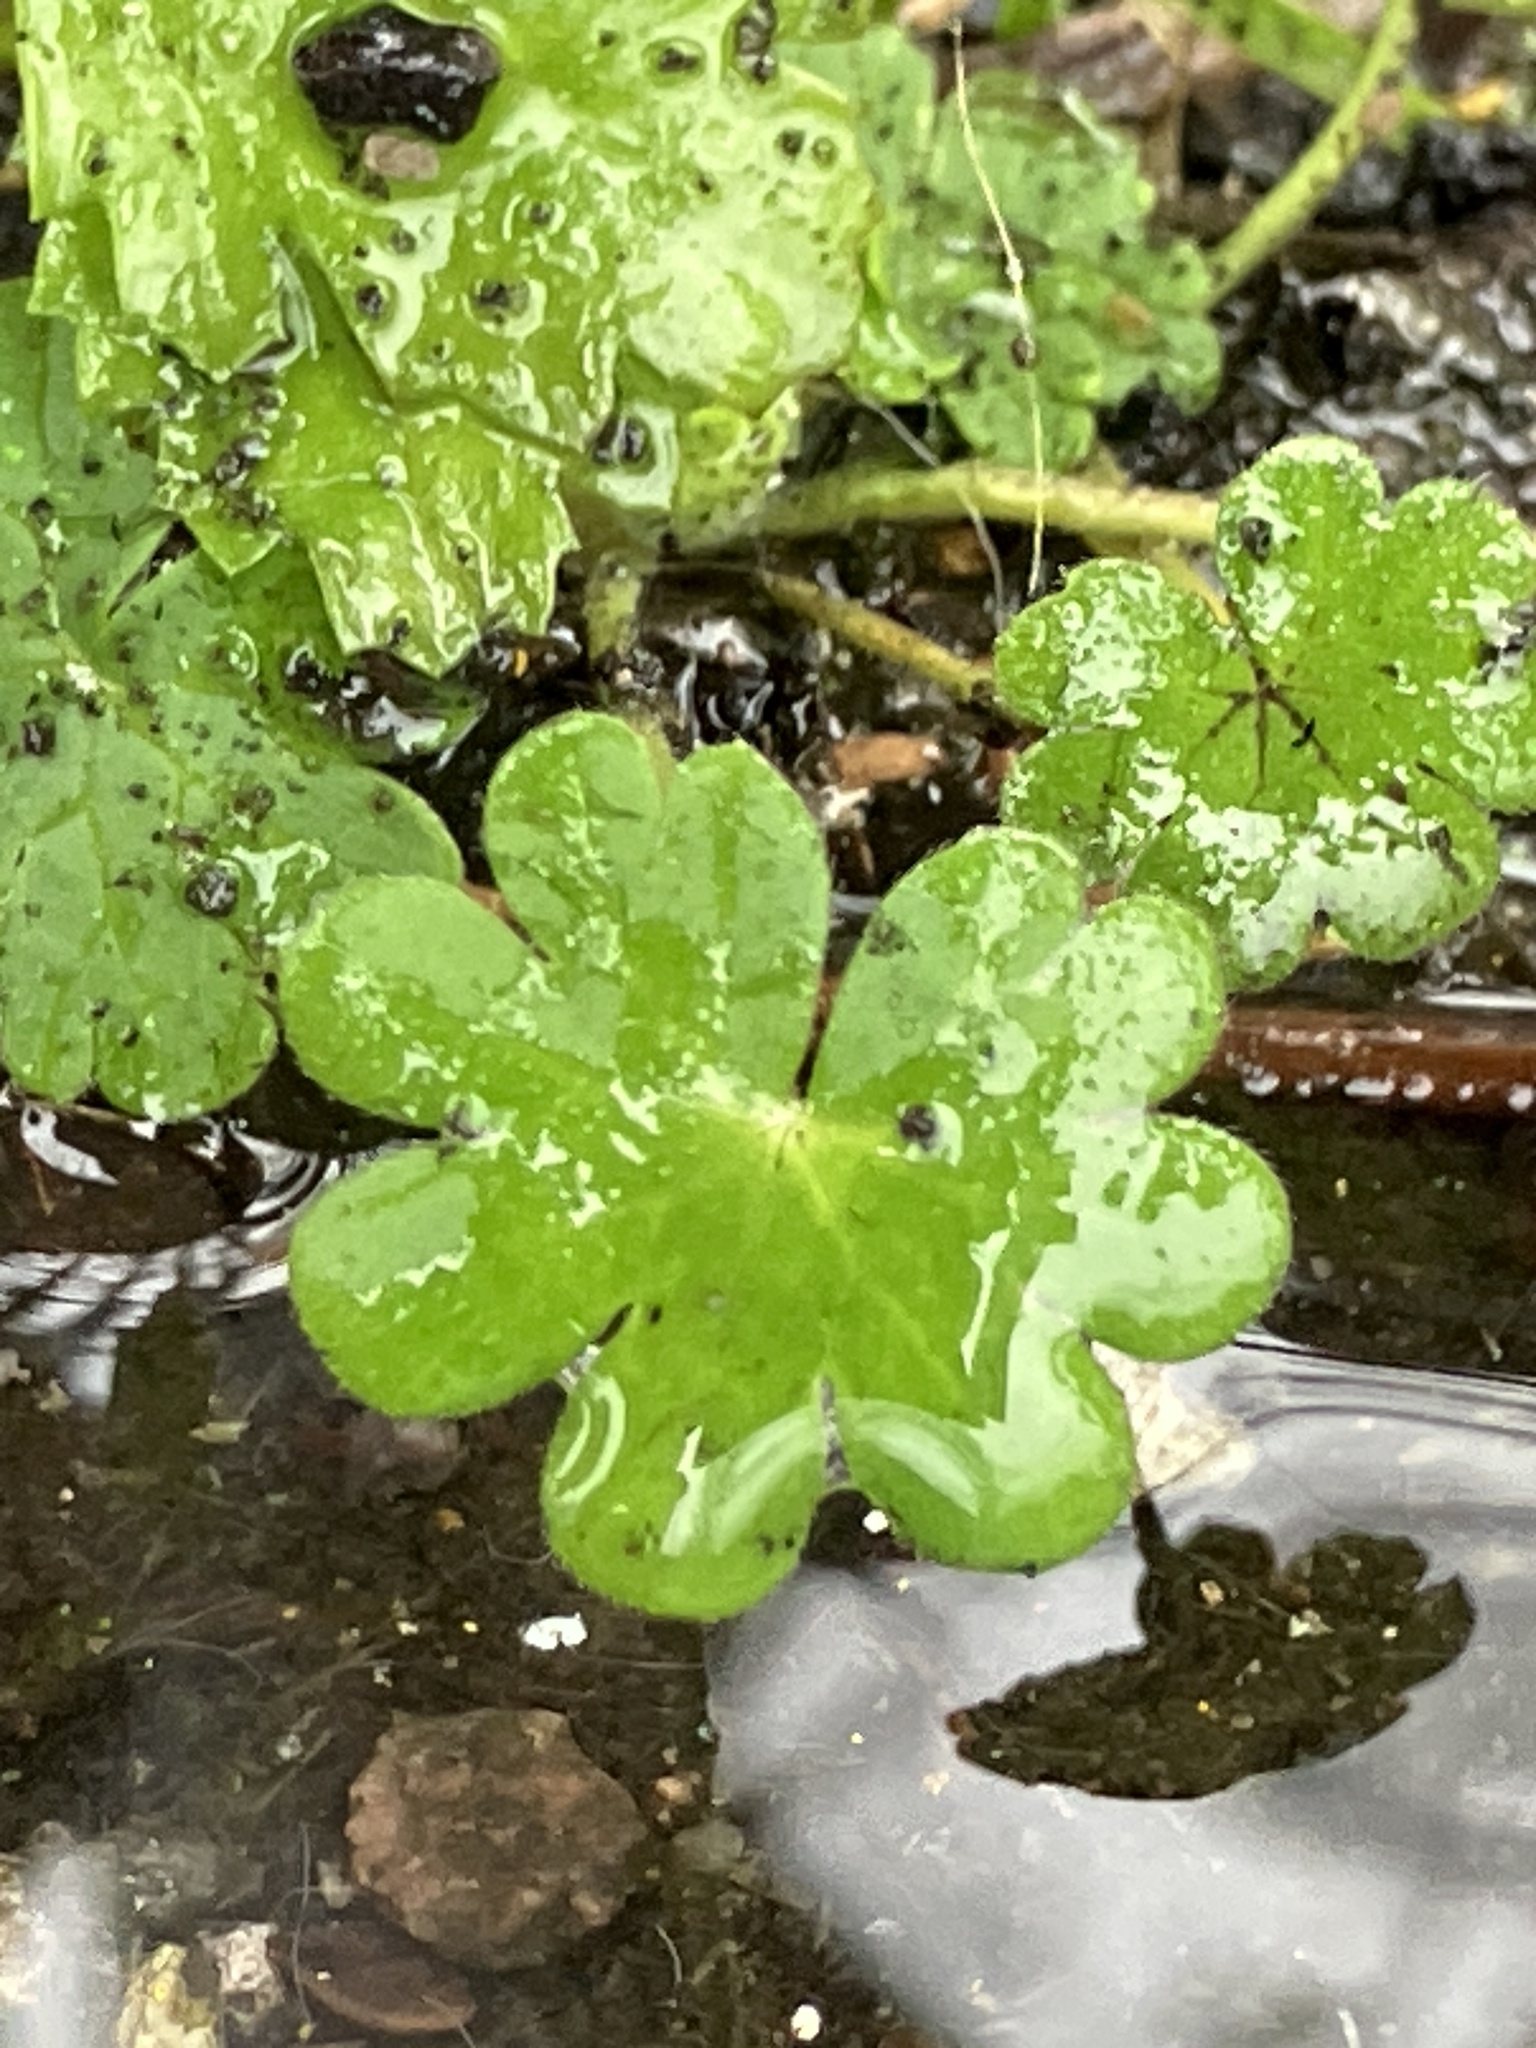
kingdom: Plantae
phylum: Tracheophyta
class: Magnoliopsida
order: Geraniales
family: Geraniaceae
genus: Geranium
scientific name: Geranium lucidum
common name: Shining crane's-bill
